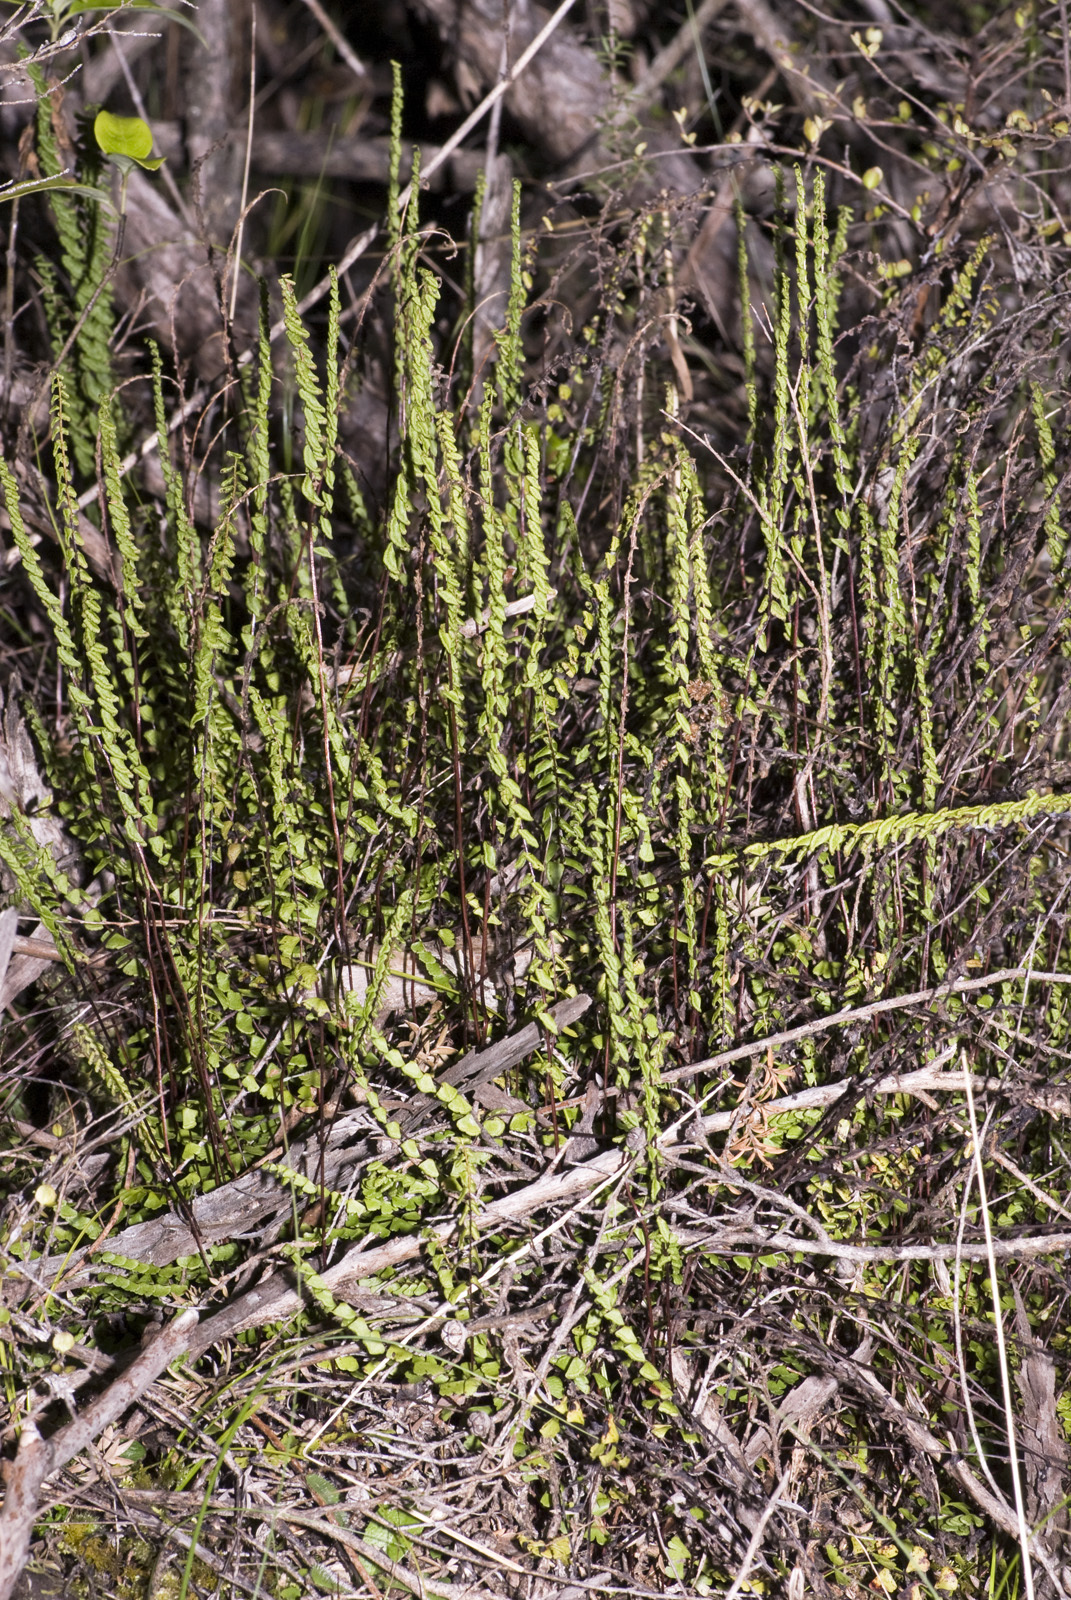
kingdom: Plantae
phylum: Tracheophyta
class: Polypodiopsida
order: Polypodiales
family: Lindsaeaceae
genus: Lindsaea
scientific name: Lindsaea linearis
